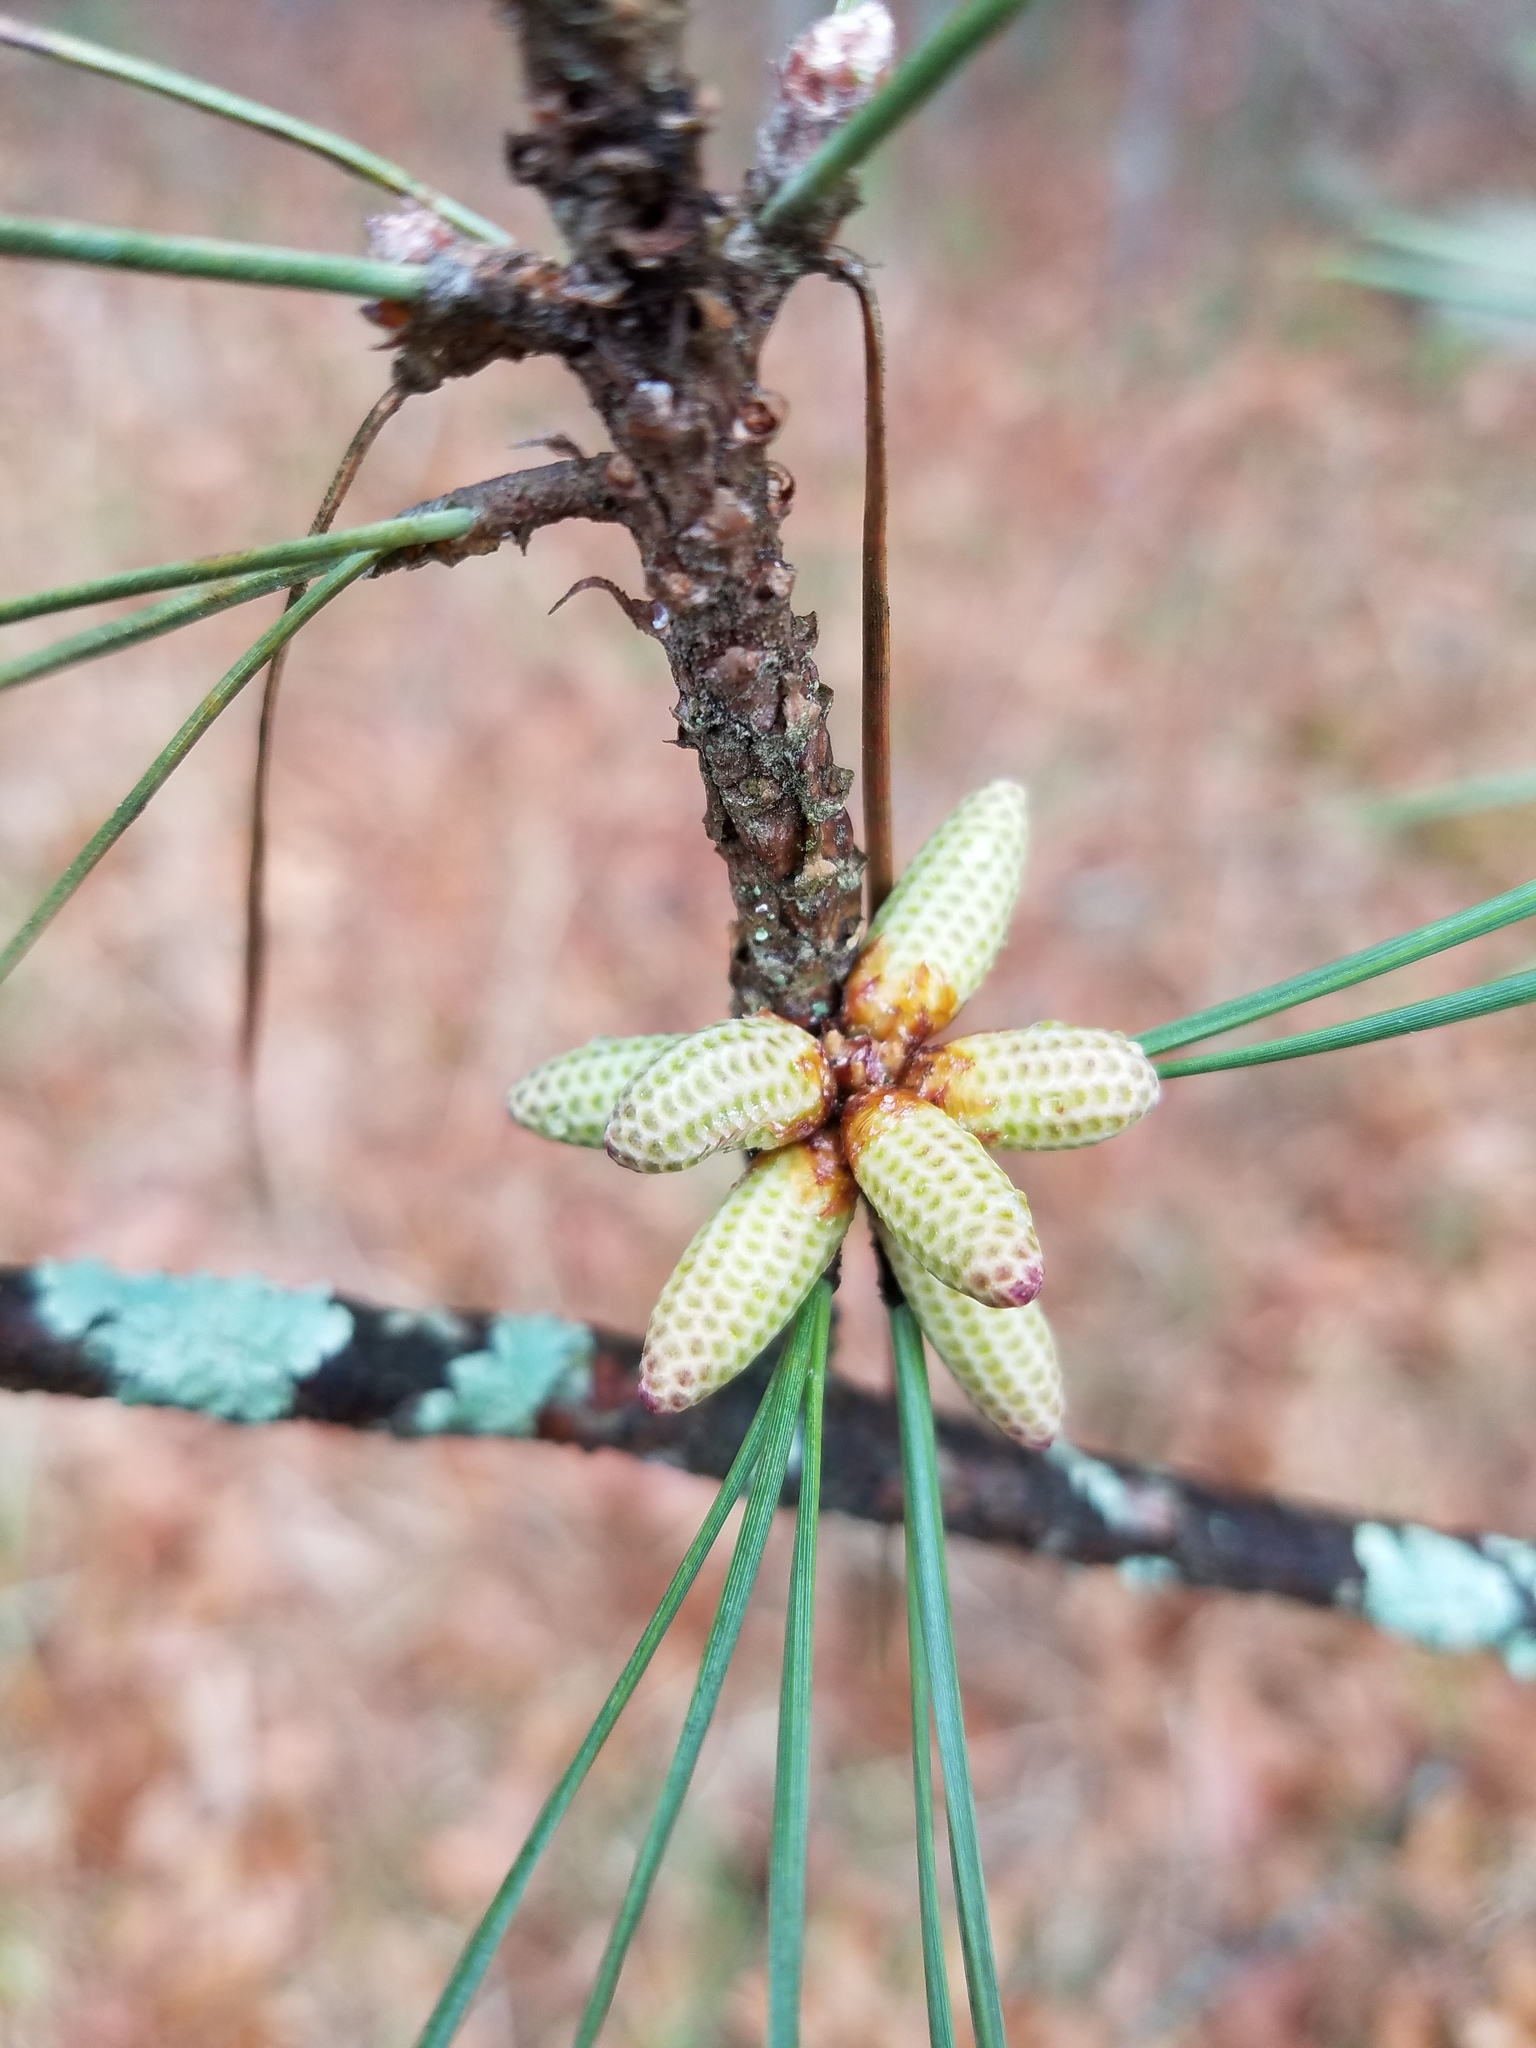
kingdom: Plantae
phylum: Tracheophyta
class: Pinopsida
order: Pinales
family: Pinaceae
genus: Pinus
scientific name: Pinus taeda
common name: Loblolly pine
